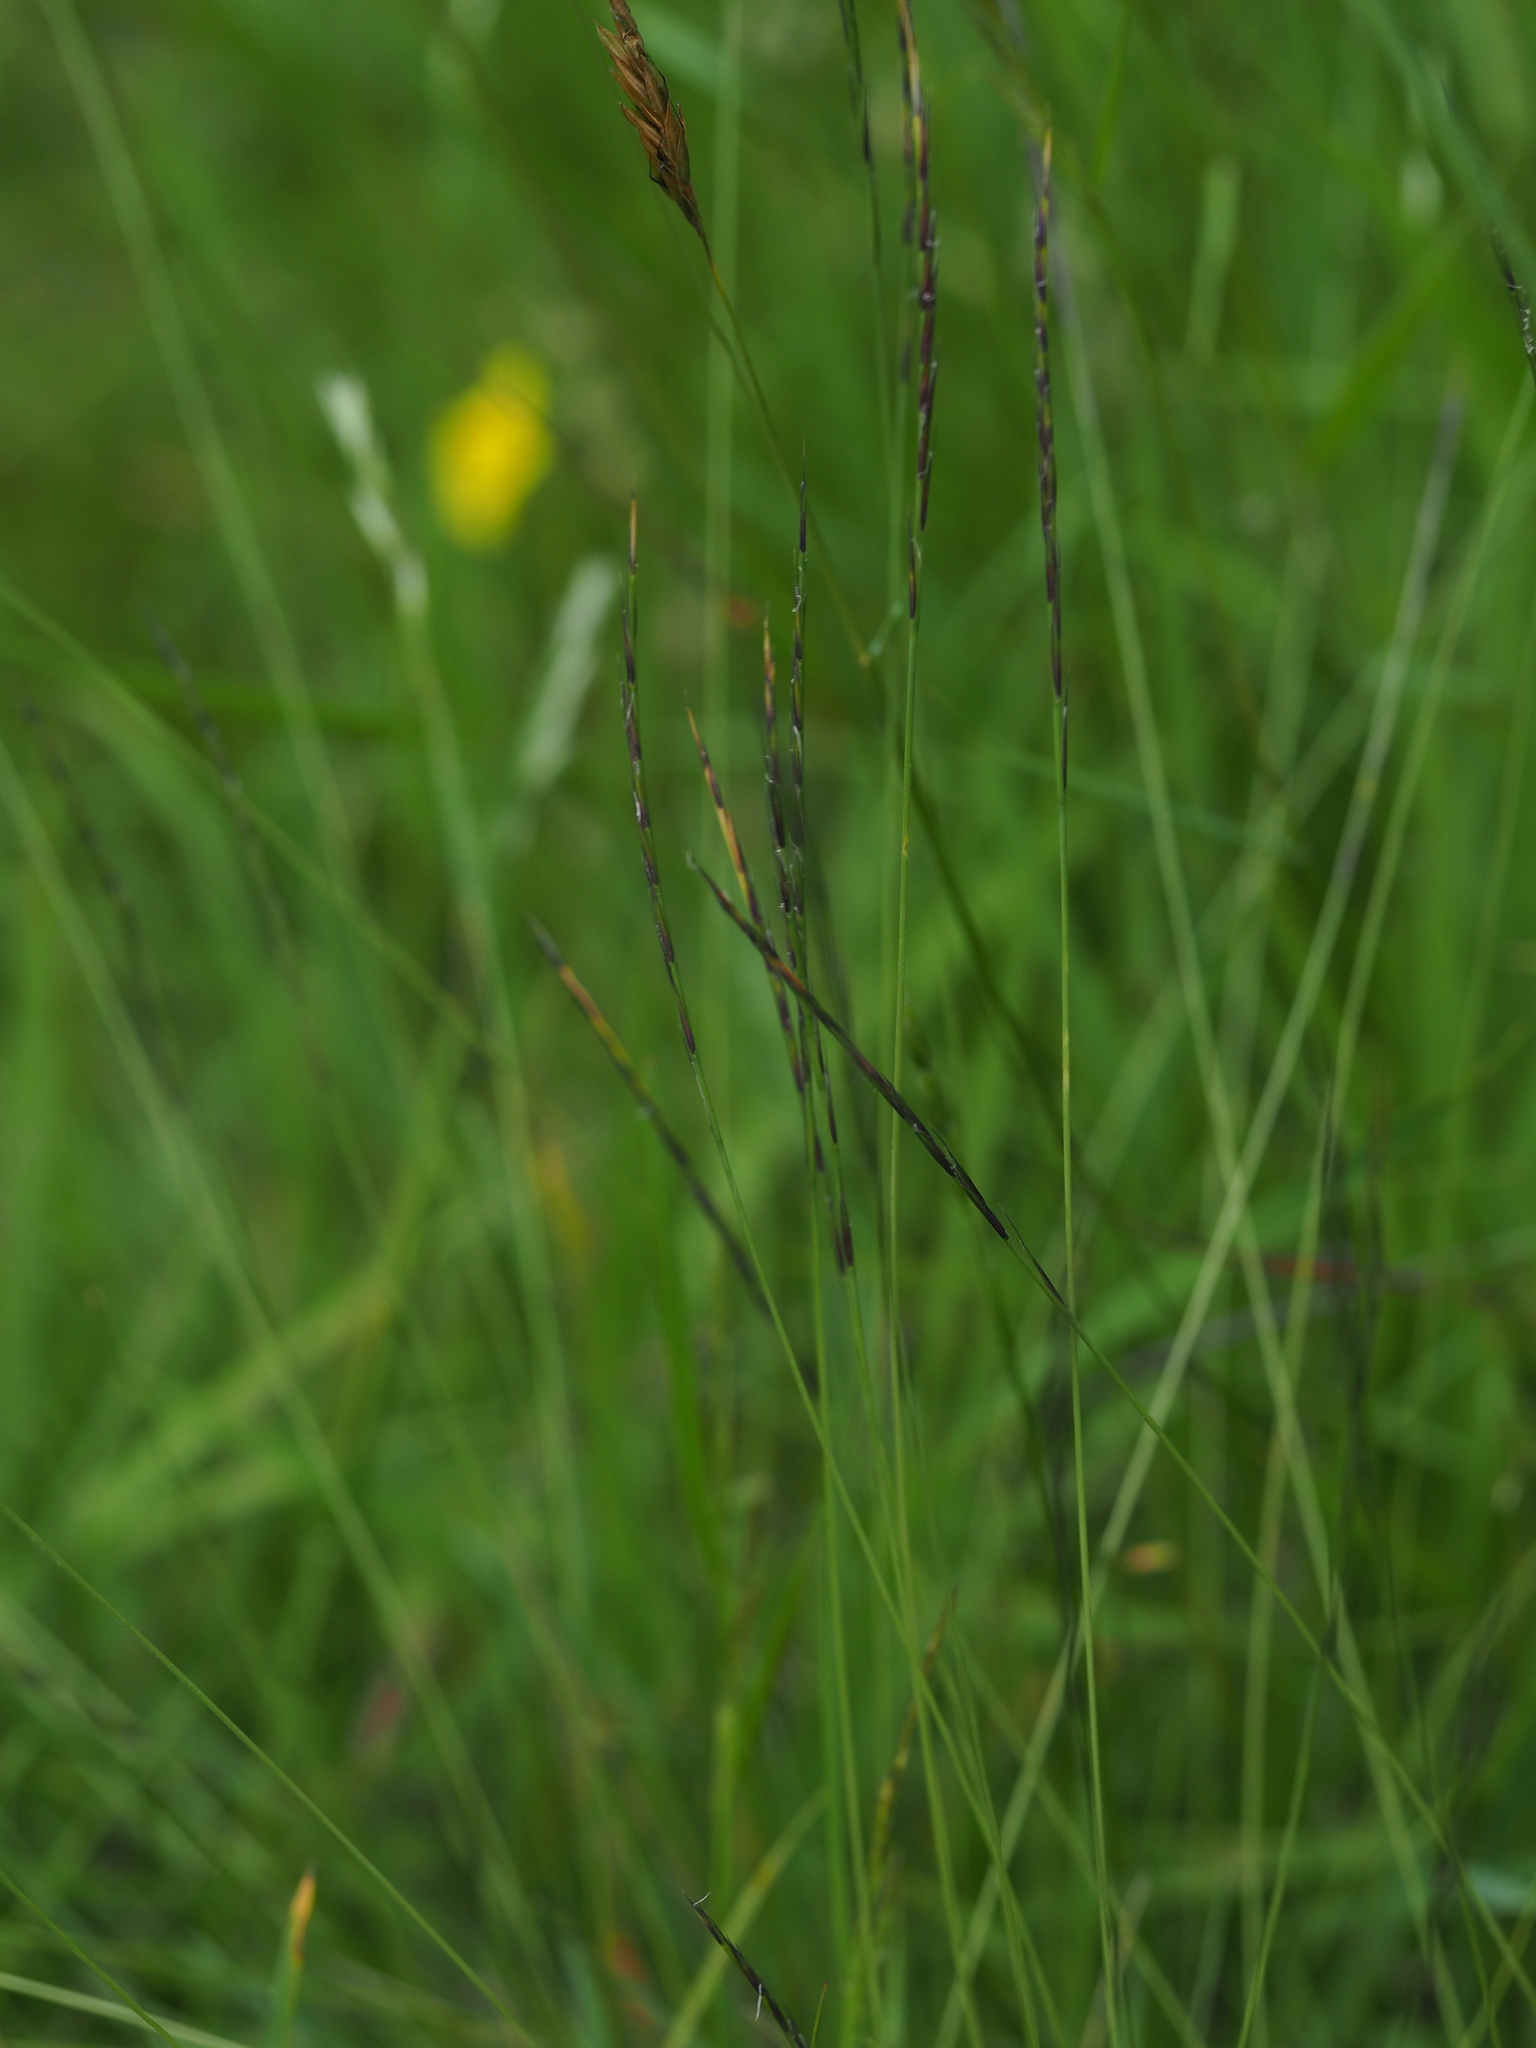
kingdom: Plantae
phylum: Tracheophyta
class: Liliopsida
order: Poales
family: Poaceae
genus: Nardus
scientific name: Nardus stricta
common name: Mat-grass
